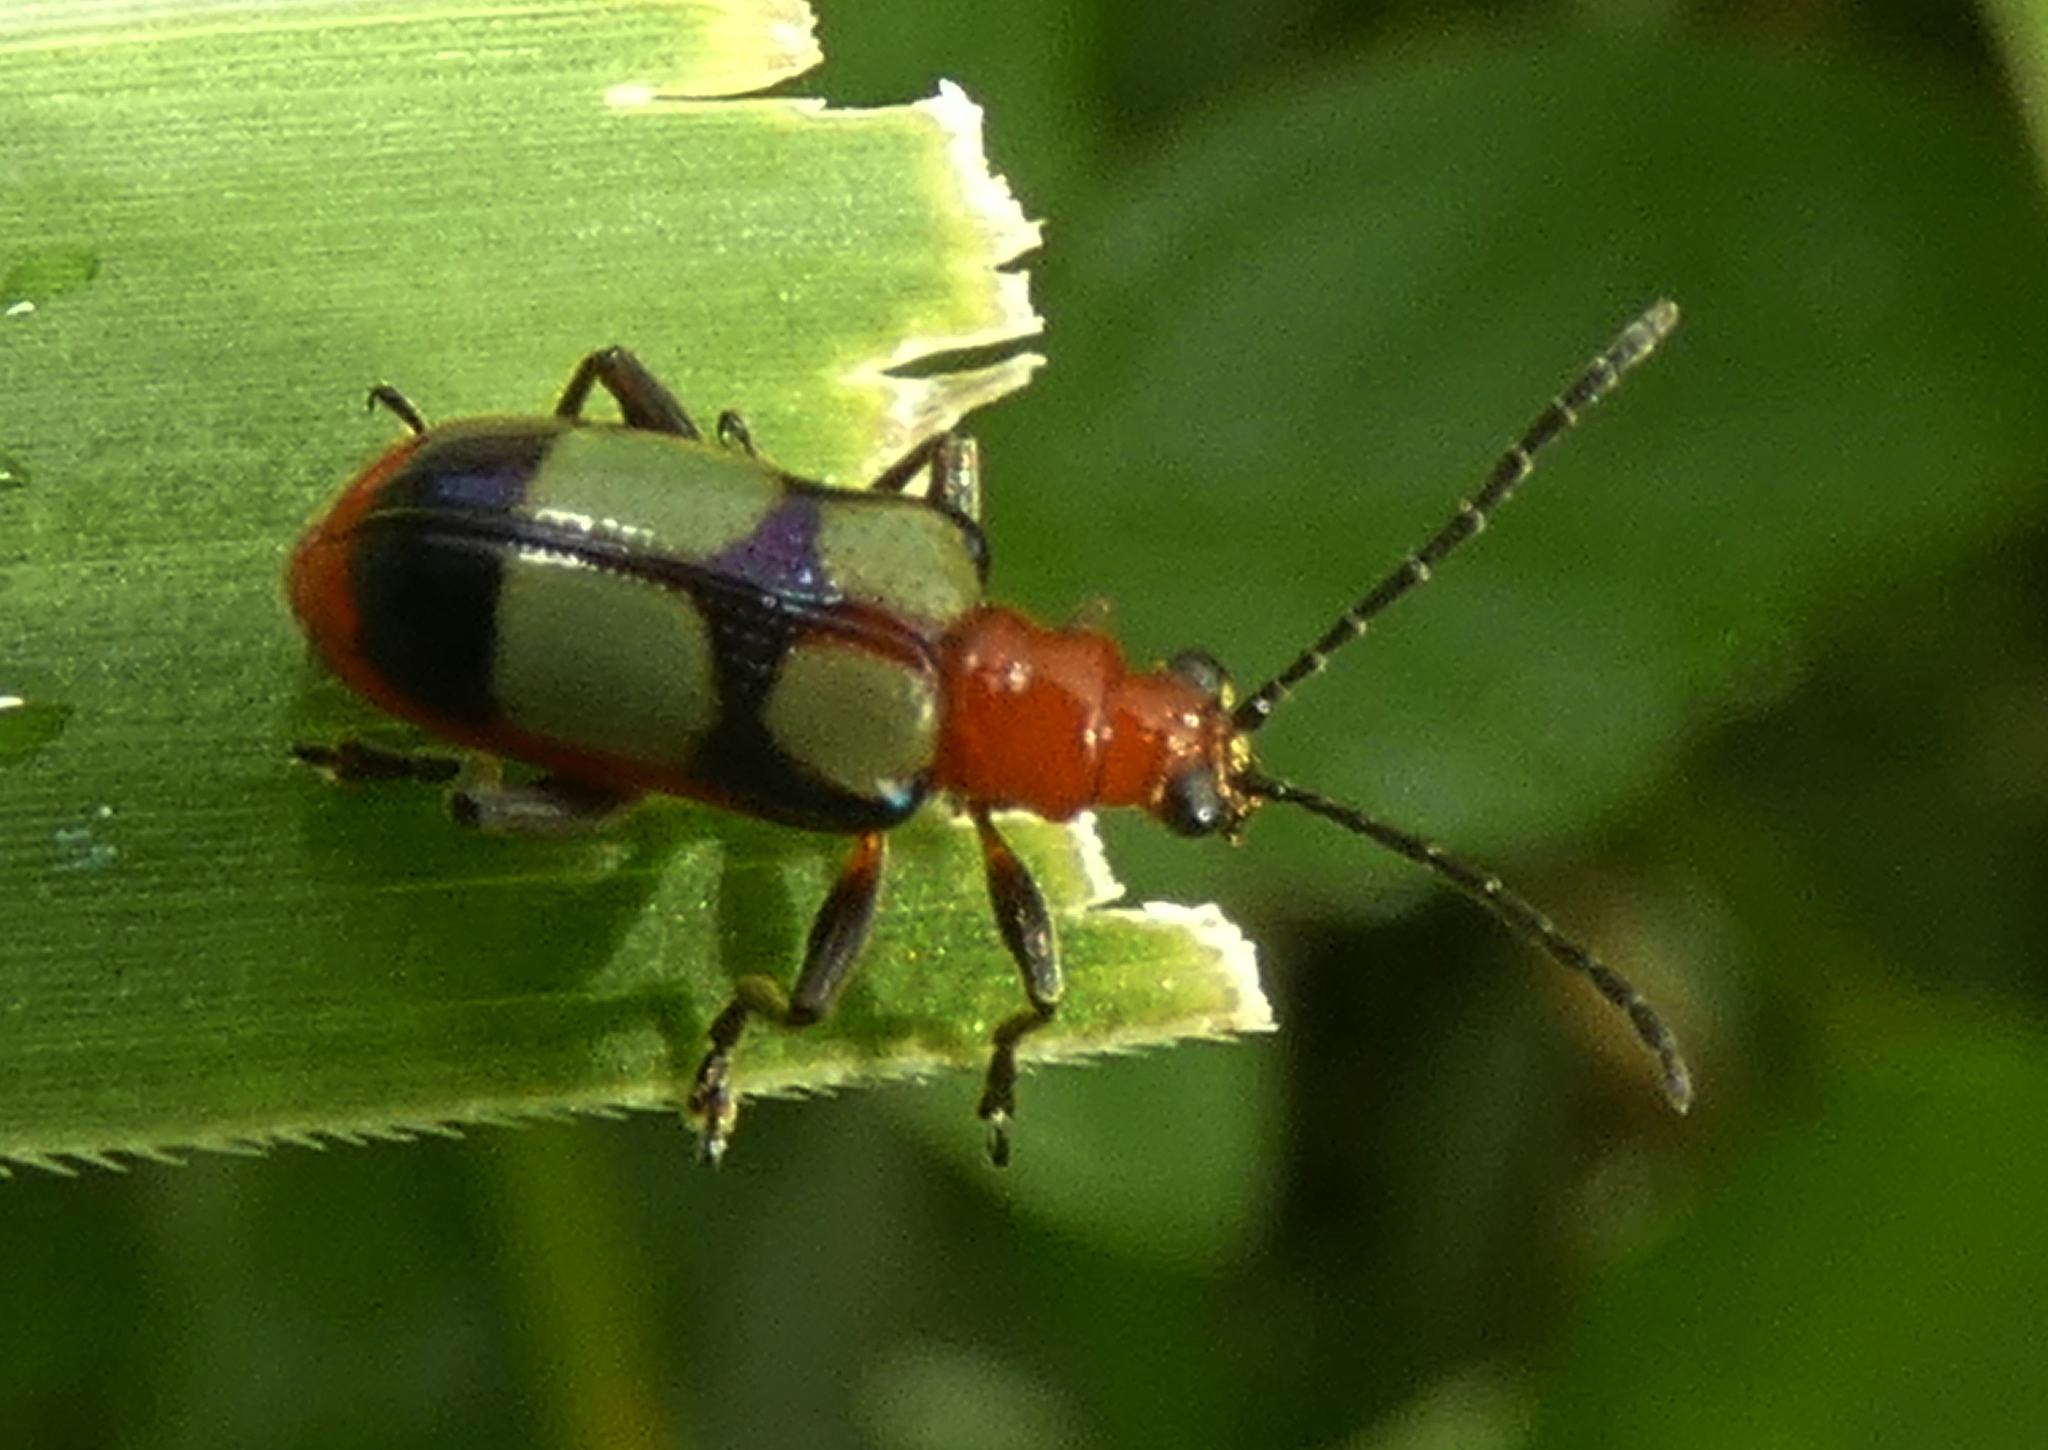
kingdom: Animalia
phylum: Arthropoda
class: Insecta
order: Coleoptera
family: Chrysomelidae
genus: Neolema
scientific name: Neolema
